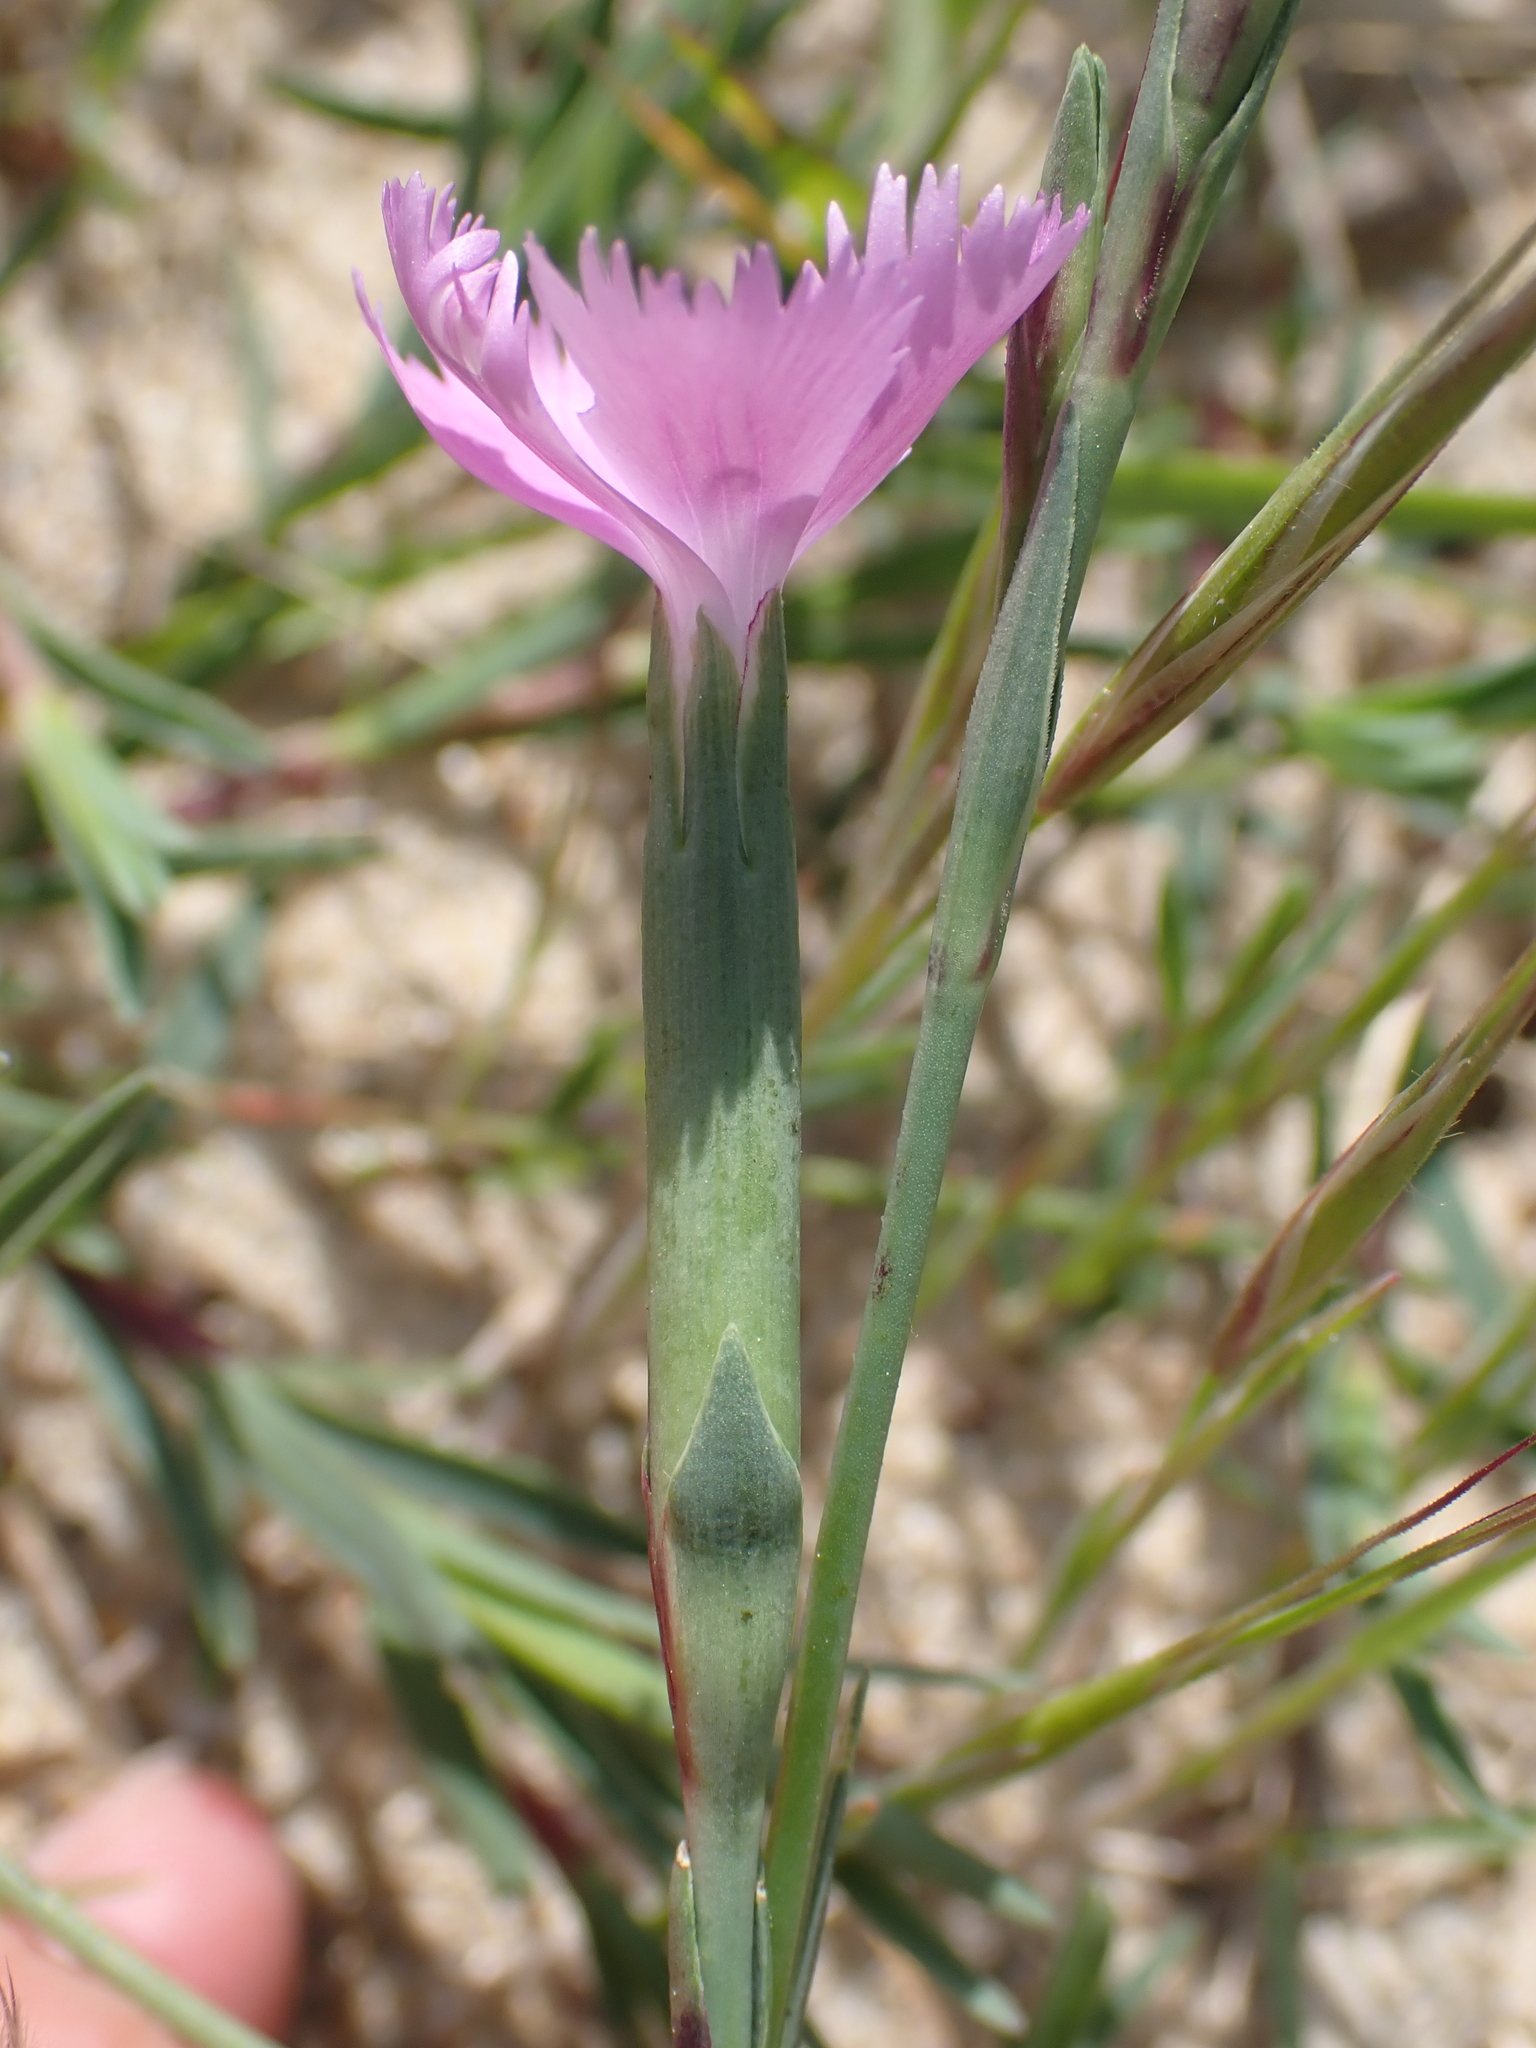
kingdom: Plantae
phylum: Tracheophyta
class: Magnoliopsida
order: Caryophyllales
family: Caryophyllaceae
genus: Dianthus
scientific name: Dianthus gallicus
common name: Jersey pink
